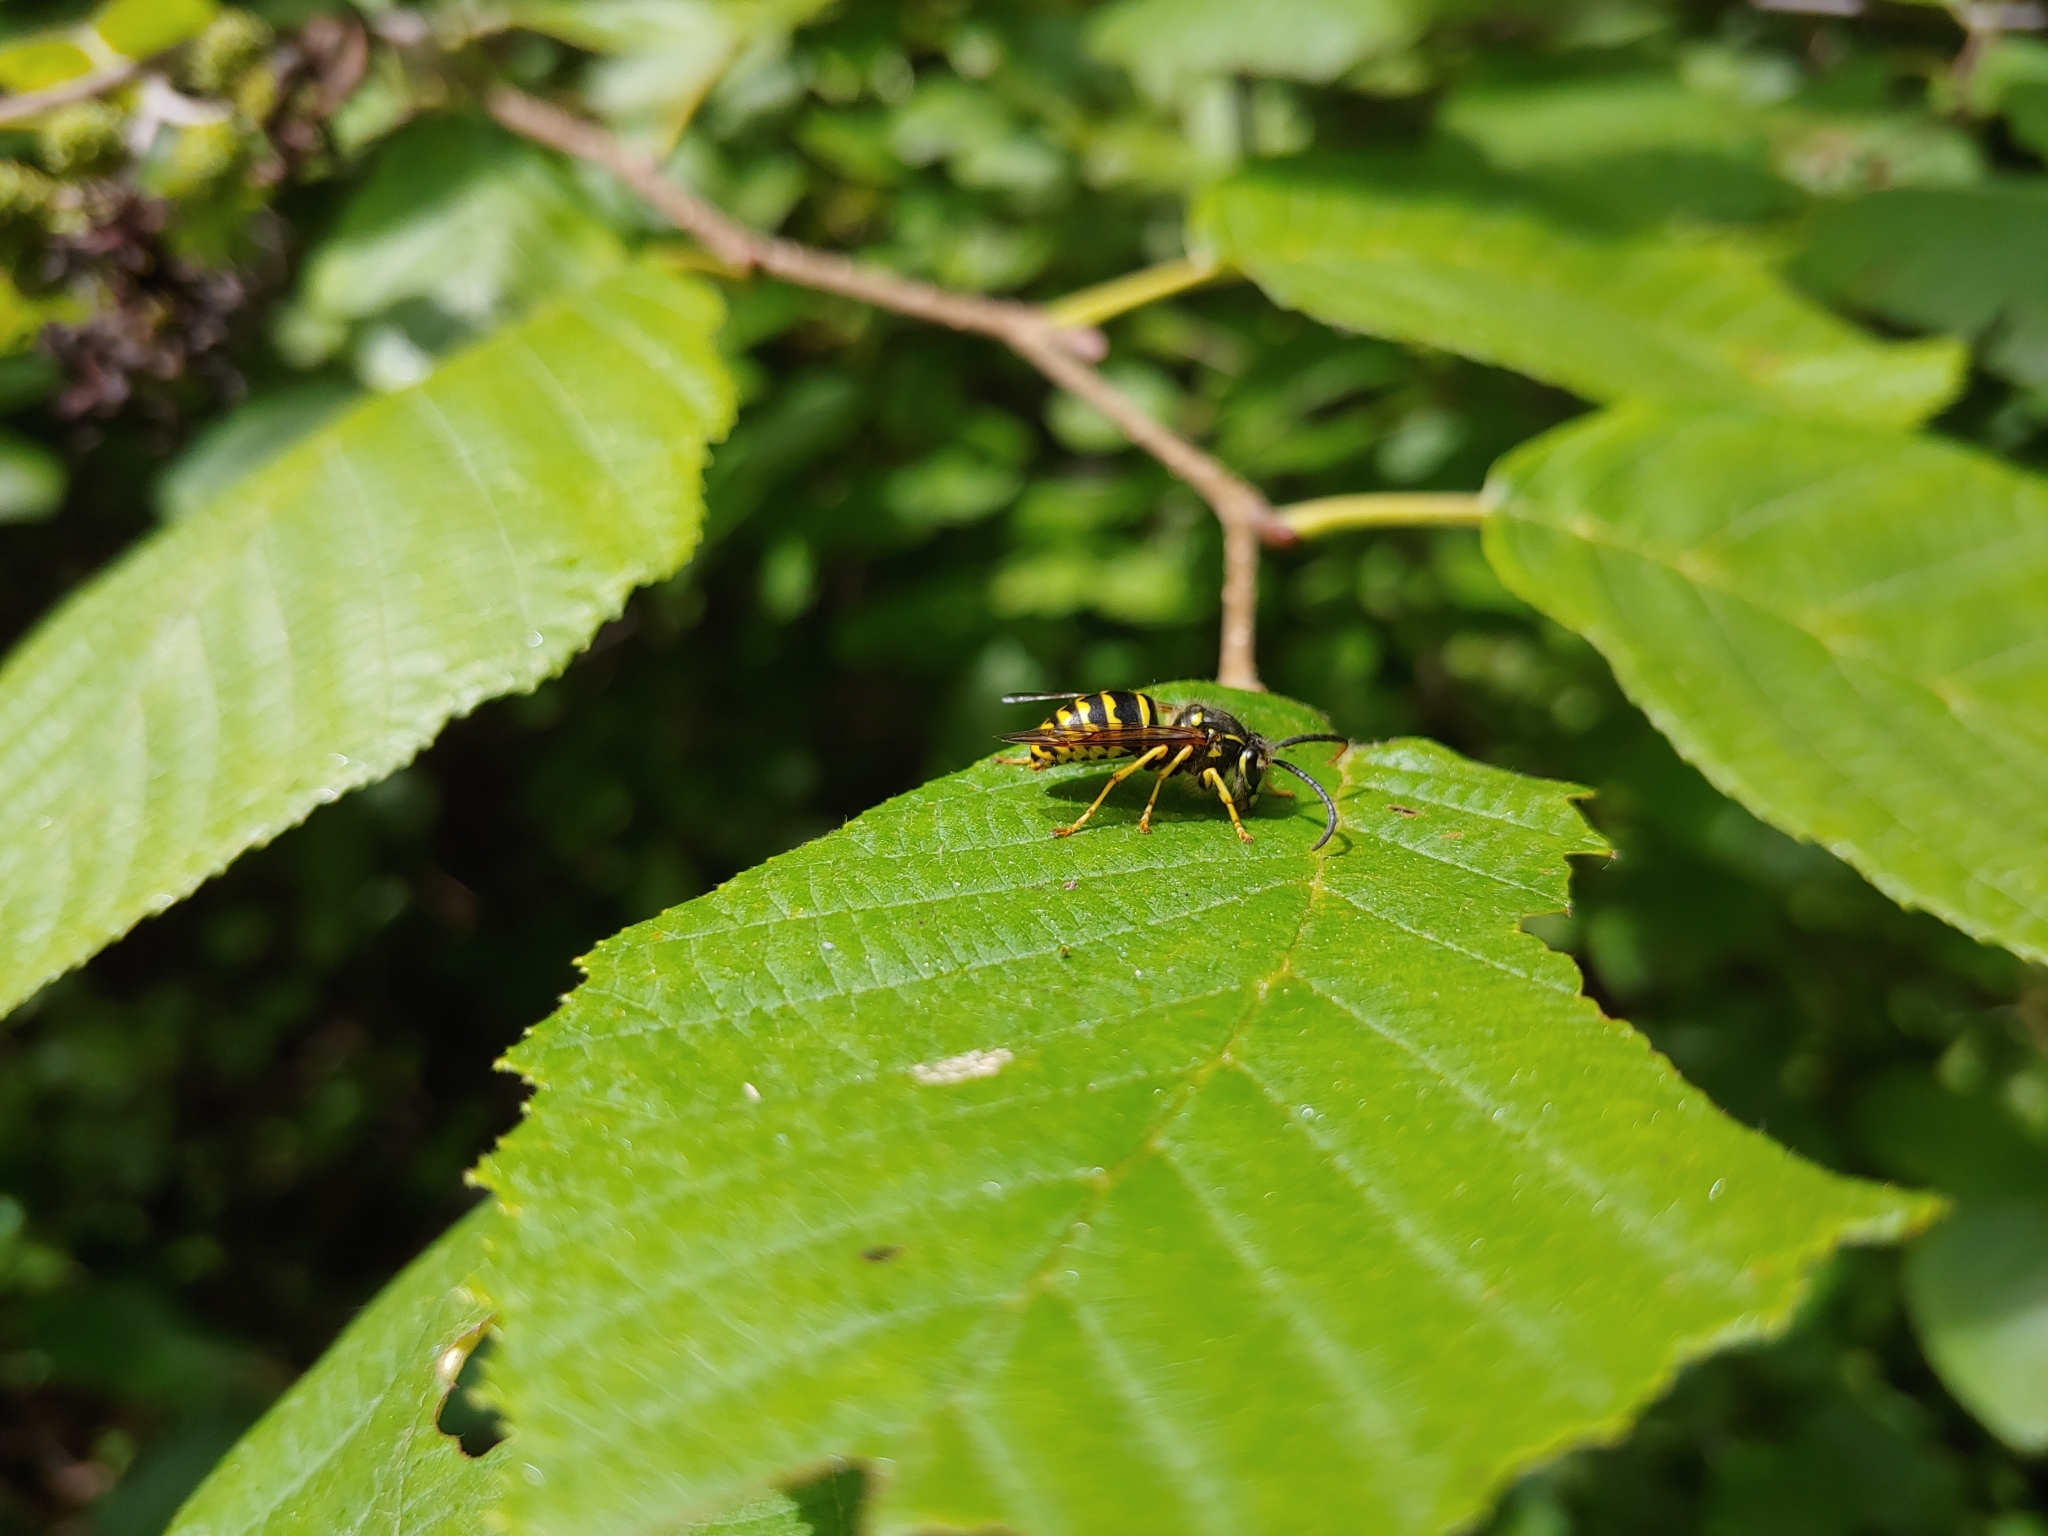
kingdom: Animalia
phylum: Arthropoda
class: Insecta
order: Hymenoptera
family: Vespidae
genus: Dolichovespula
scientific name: Dolichovespula arenaria
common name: Aerial yellowjacket
